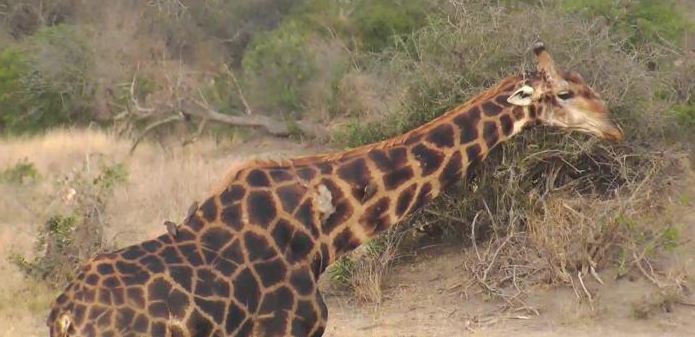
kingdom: Animalia
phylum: Chordata
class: Mammalia
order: Artiodactyla
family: Giraffidae
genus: Giraffa
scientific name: Giraffa giraffa
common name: Southern giraffe
